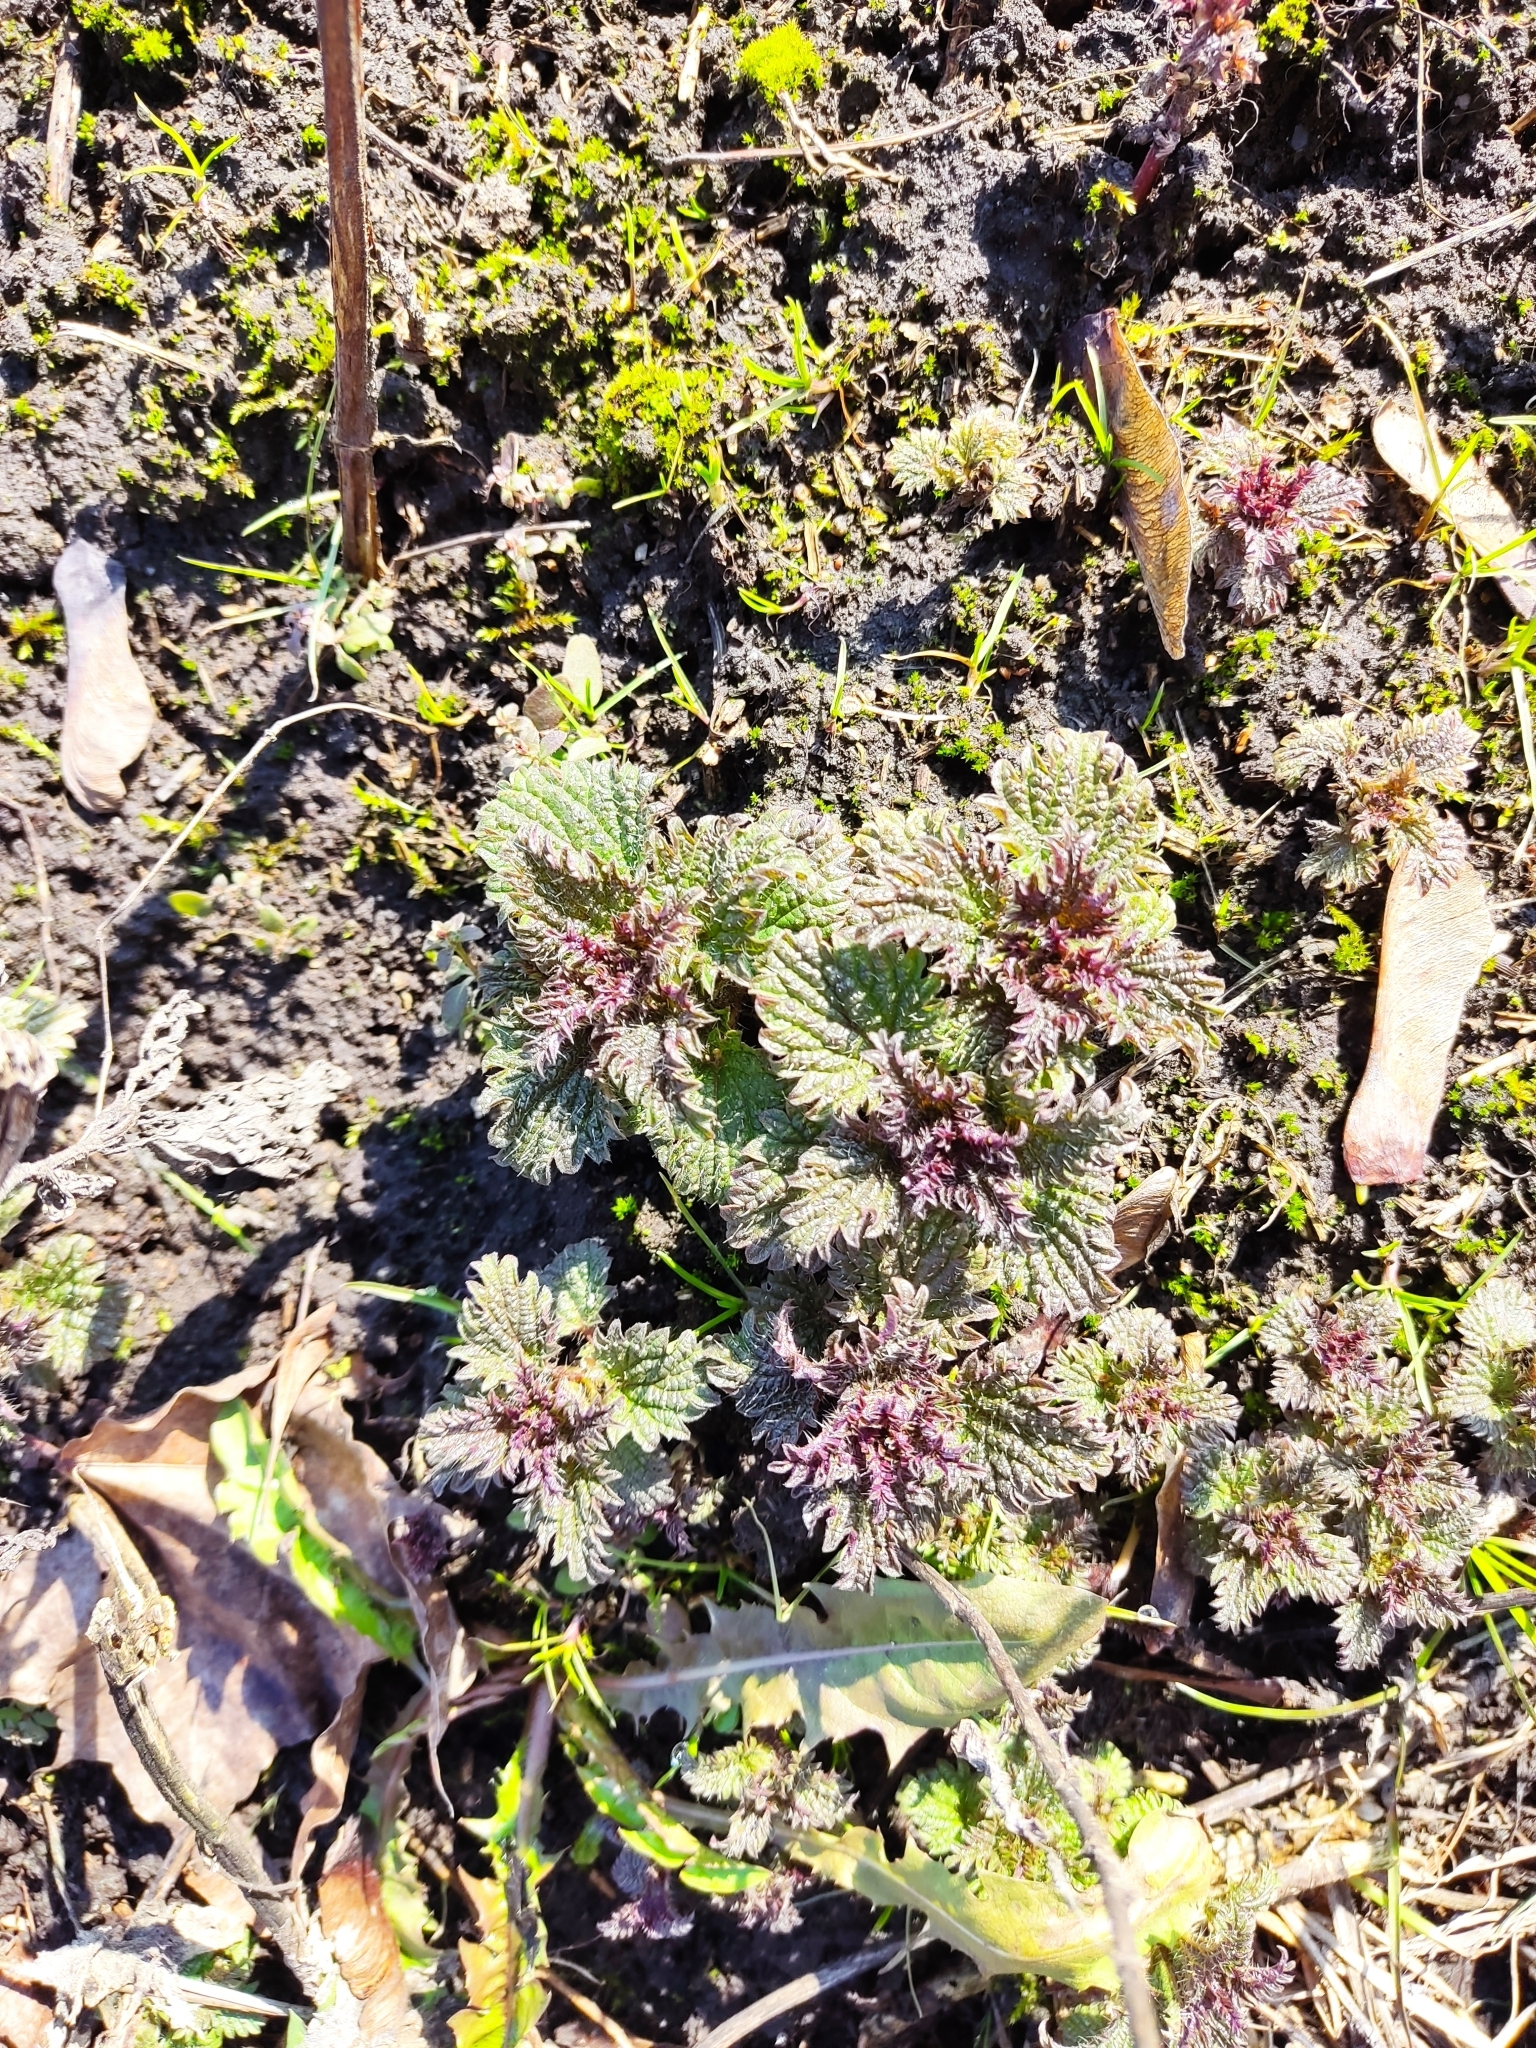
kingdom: Plantae
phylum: Tracheophyta
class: Magnoliopsida
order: Rosales
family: Urticaceae
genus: Urtica
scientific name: Urtica dioica
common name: Common nettle
